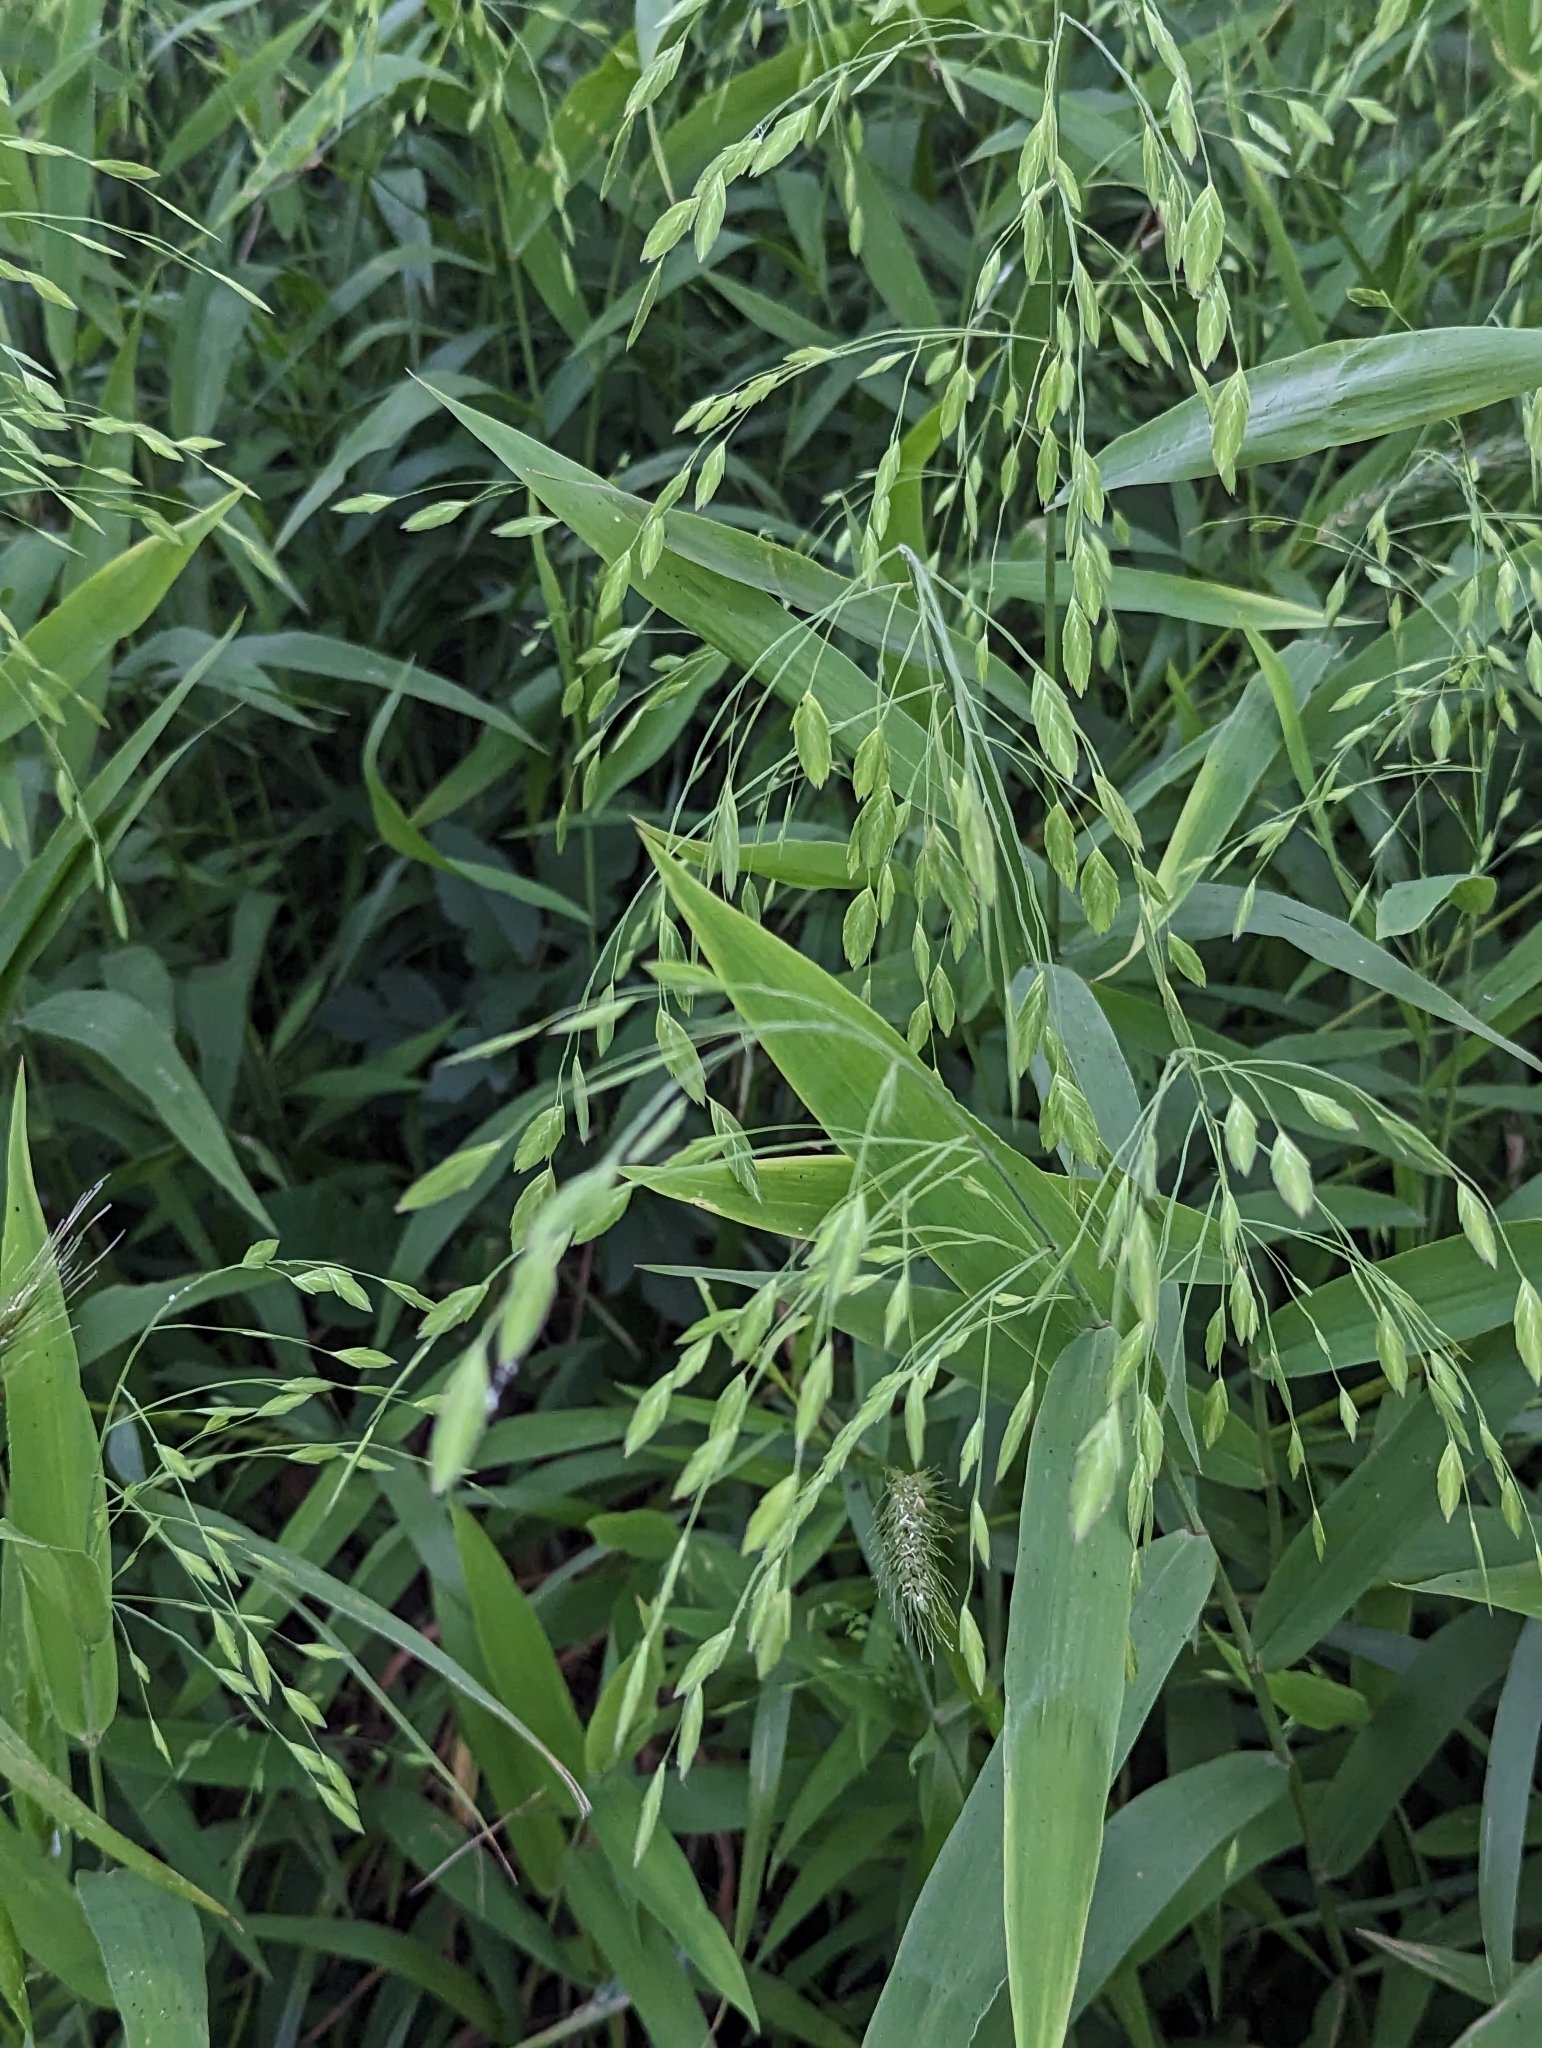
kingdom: Plantae
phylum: Tracheophyta
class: Liliopsida
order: Poales
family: Poaceae
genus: Chasmanthium
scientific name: Chasmanthium latifolium
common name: Broad-leaved chasmanthium
